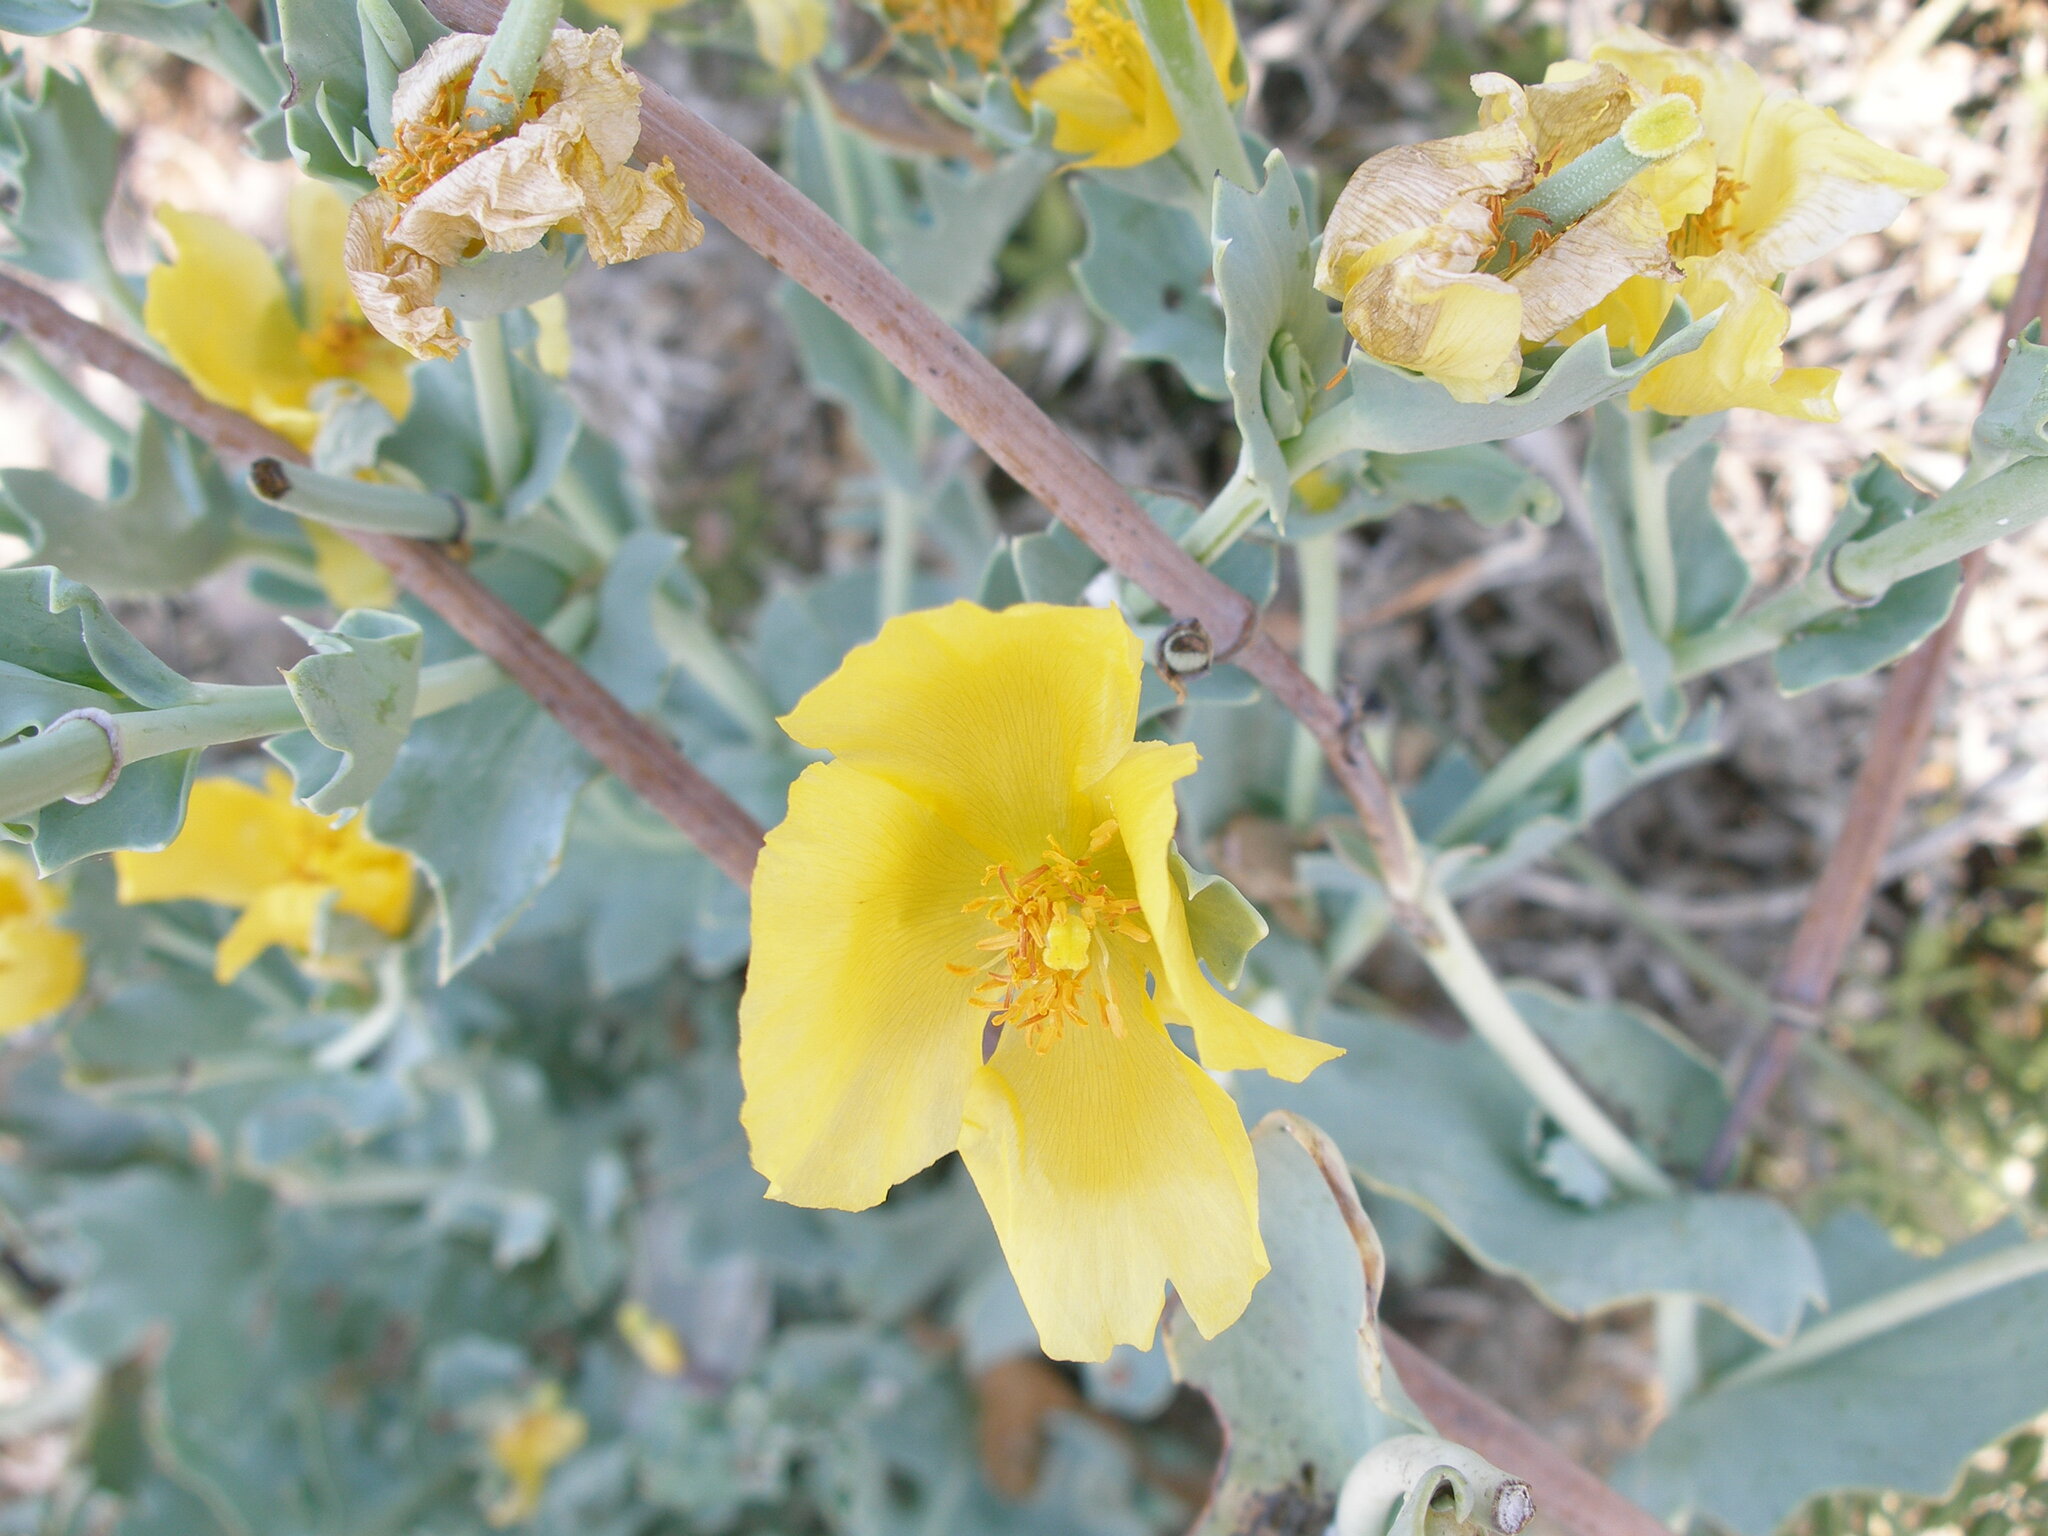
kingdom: Plantae
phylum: Tracheophyta
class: Magnoliopsida
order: Ranunculales
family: Papaveraceae
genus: Glaucium
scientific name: Glaucium flavum
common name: Yellow horned-poppy
